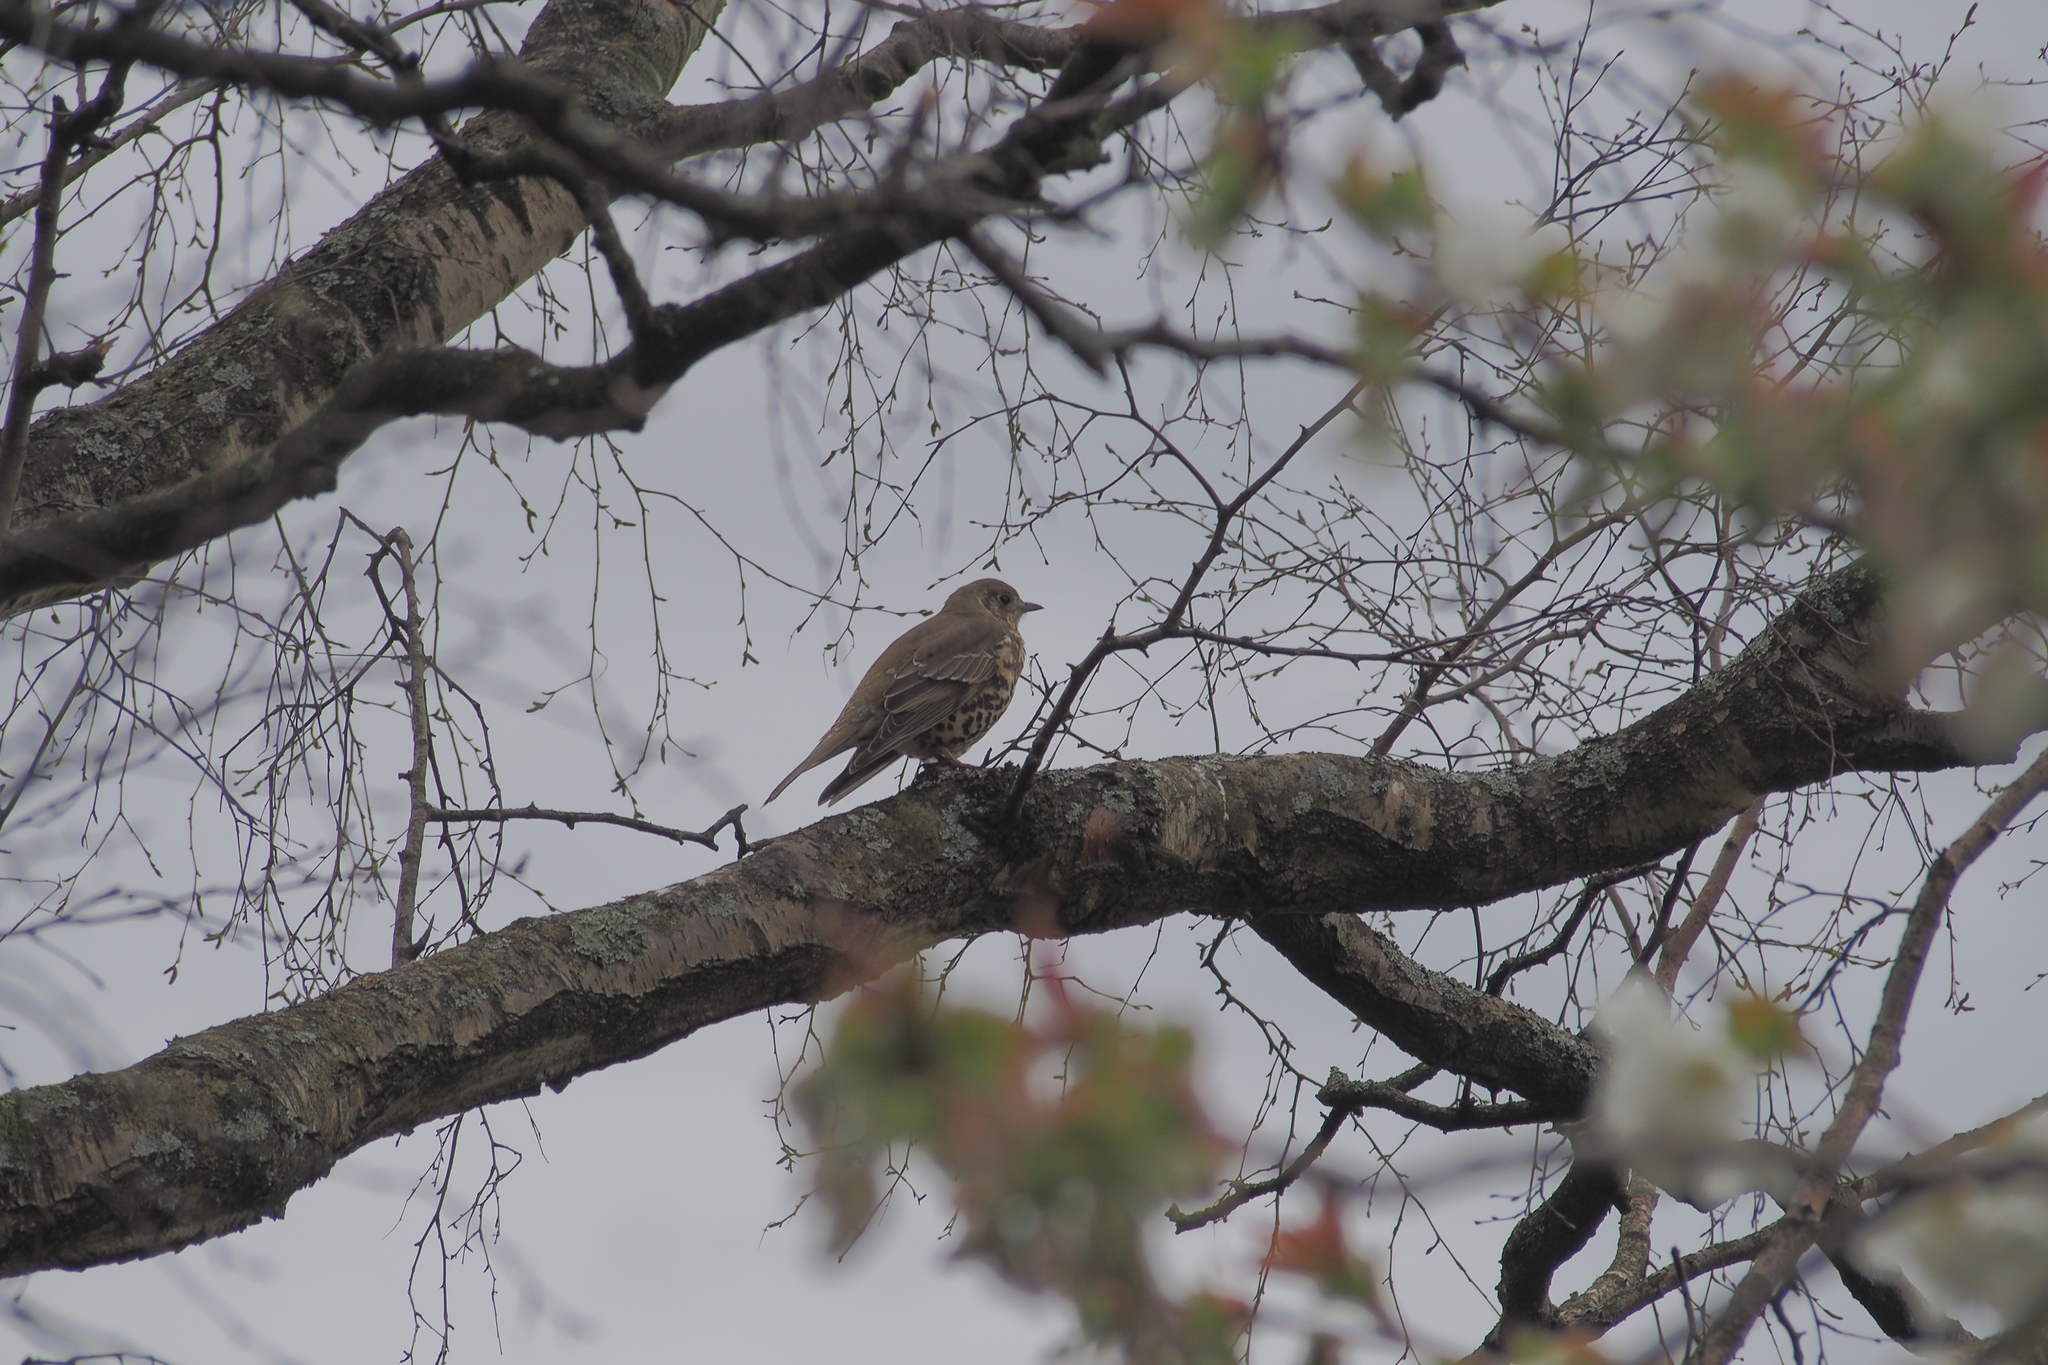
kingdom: Animalia
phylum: Chordata
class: Aves
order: Passeriformes
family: Turdidae
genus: Turdus
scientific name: Turdus philomelos
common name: Song thrush
